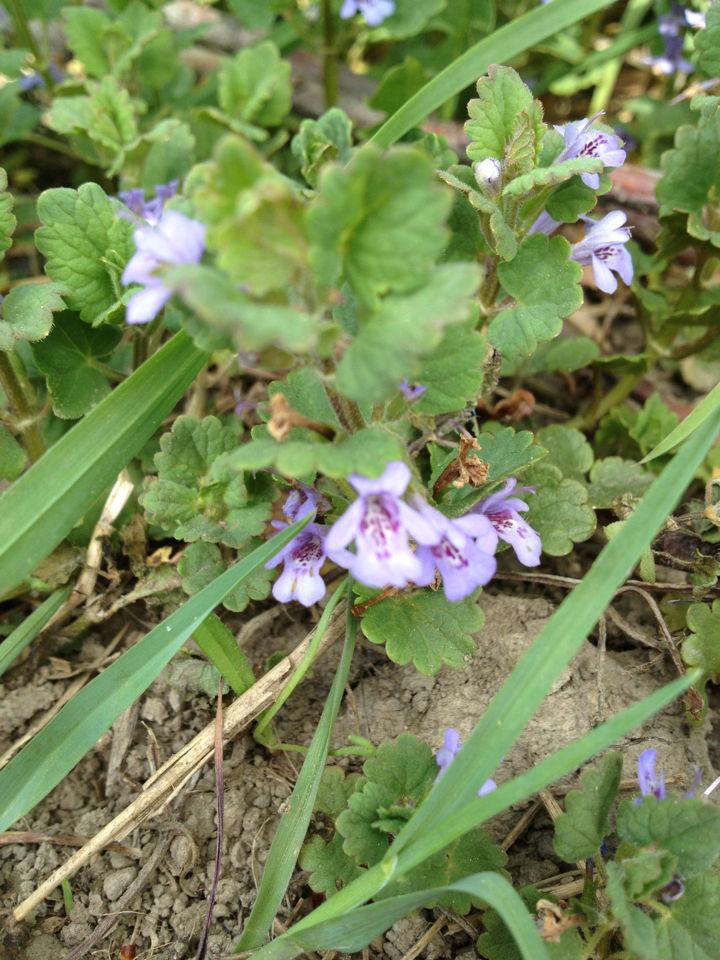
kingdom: Plantae
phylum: Tracheophyta
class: Magnoliopsida
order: Lamiales
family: Lamiaceae
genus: Glechoma
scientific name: Glechoma hederacea
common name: Ground ivy
